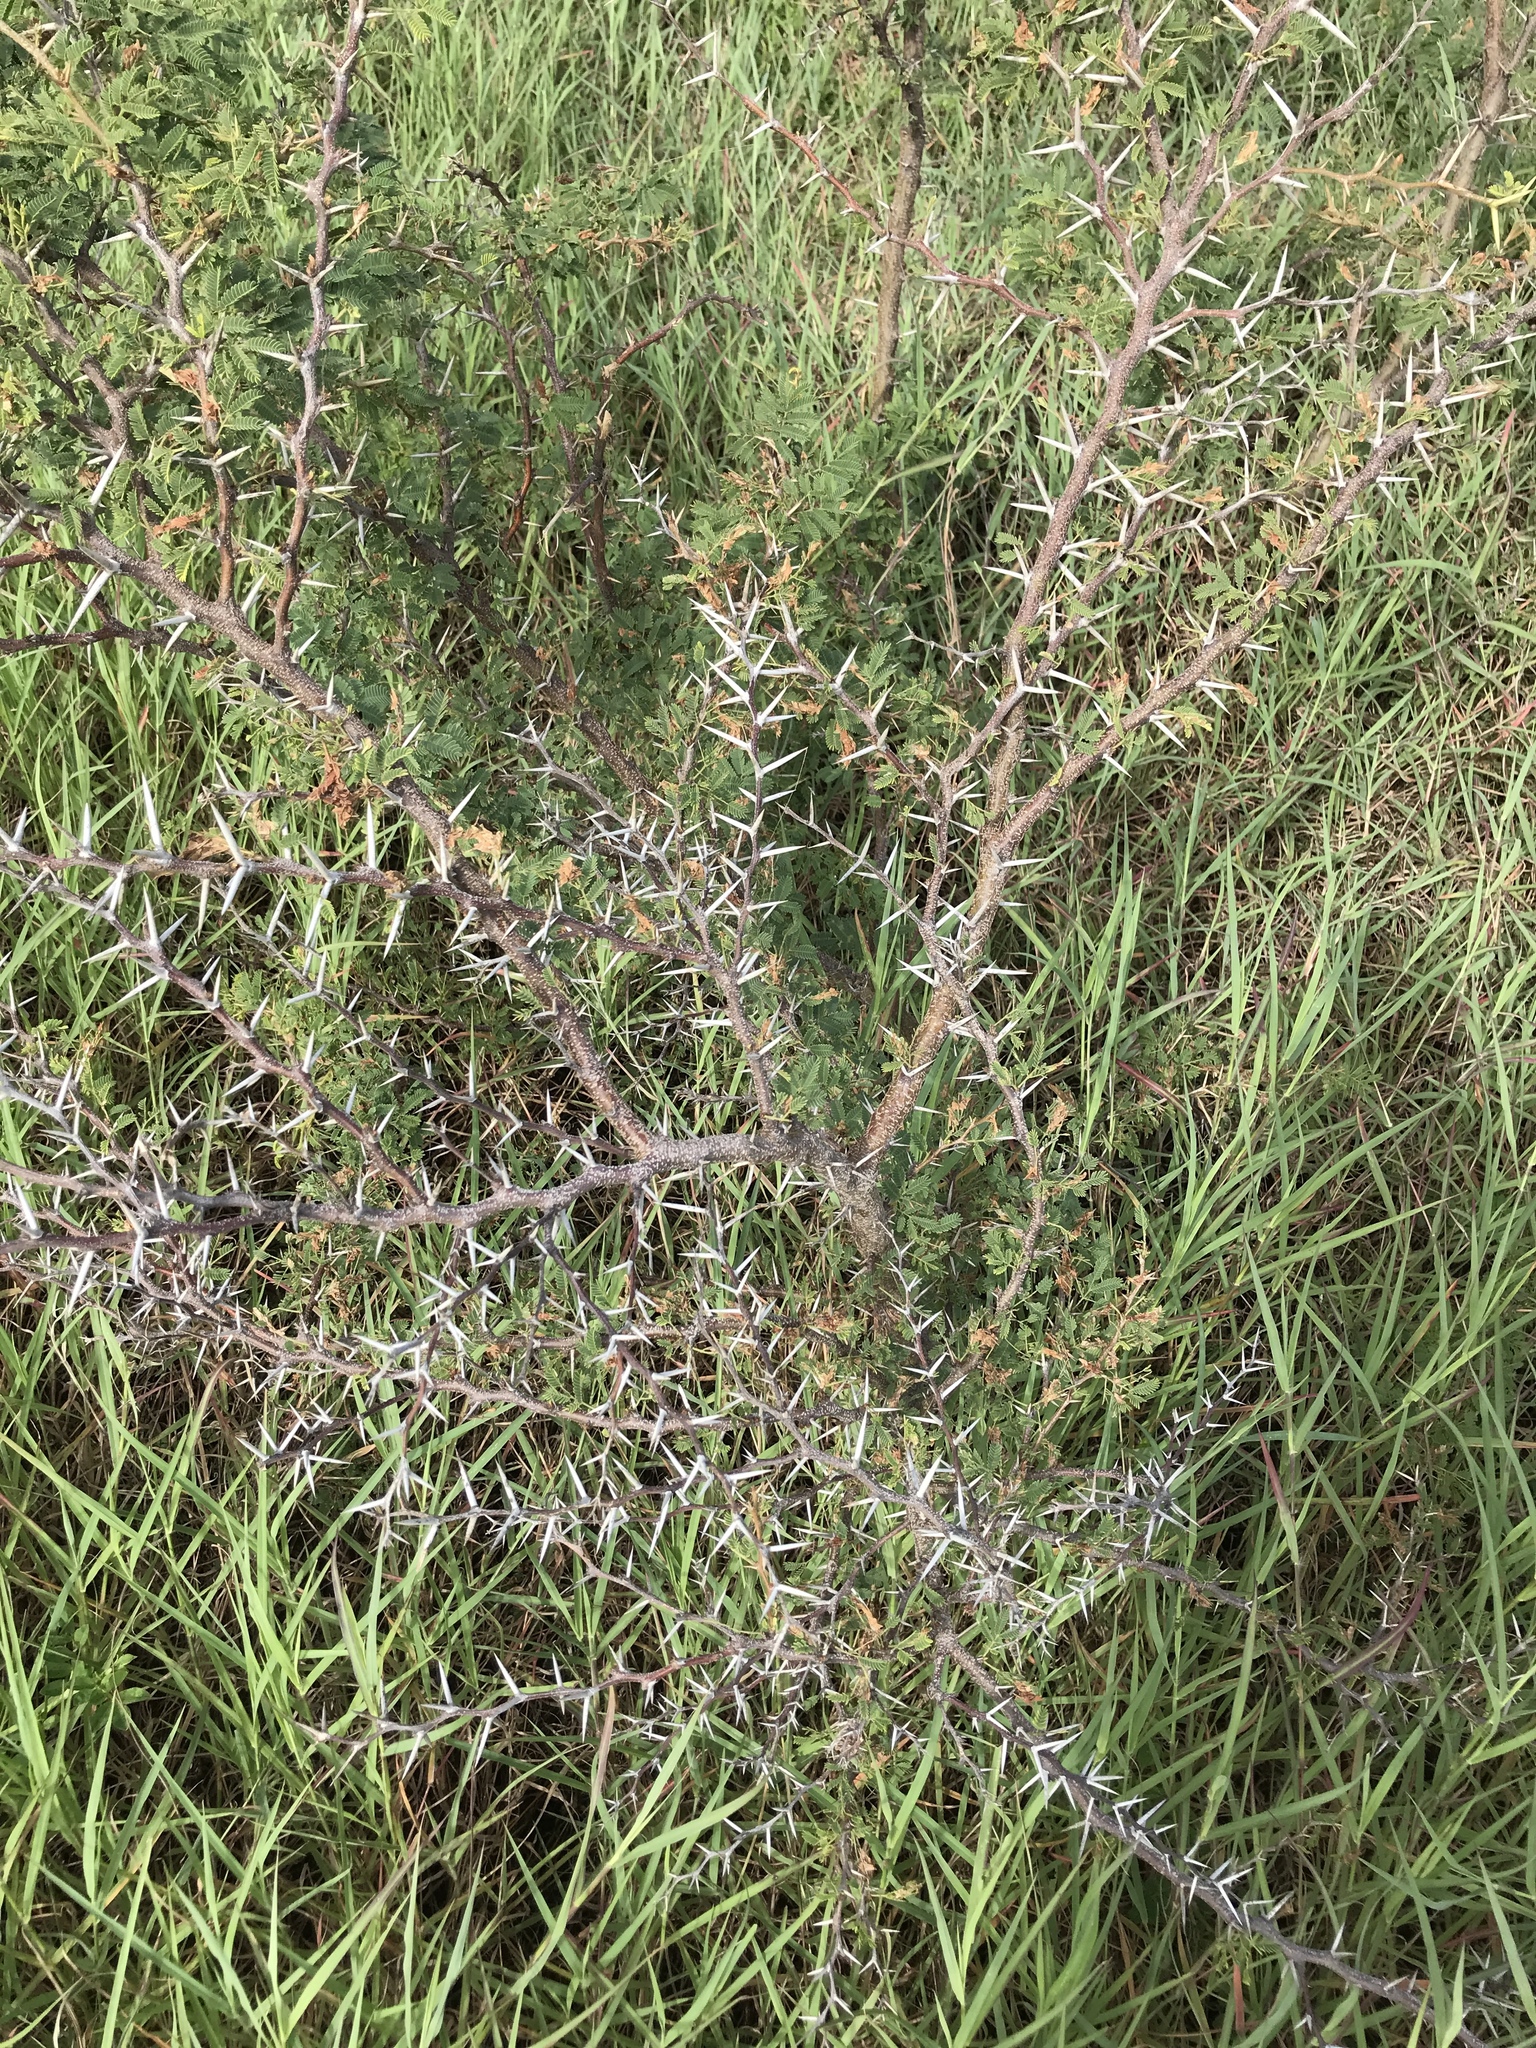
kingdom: Plantae
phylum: Tracheophyta
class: Magnoliopsida
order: Fabales
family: Fabaceae
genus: Vachellia
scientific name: Vachellia farnesiana
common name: Sweet acacia
